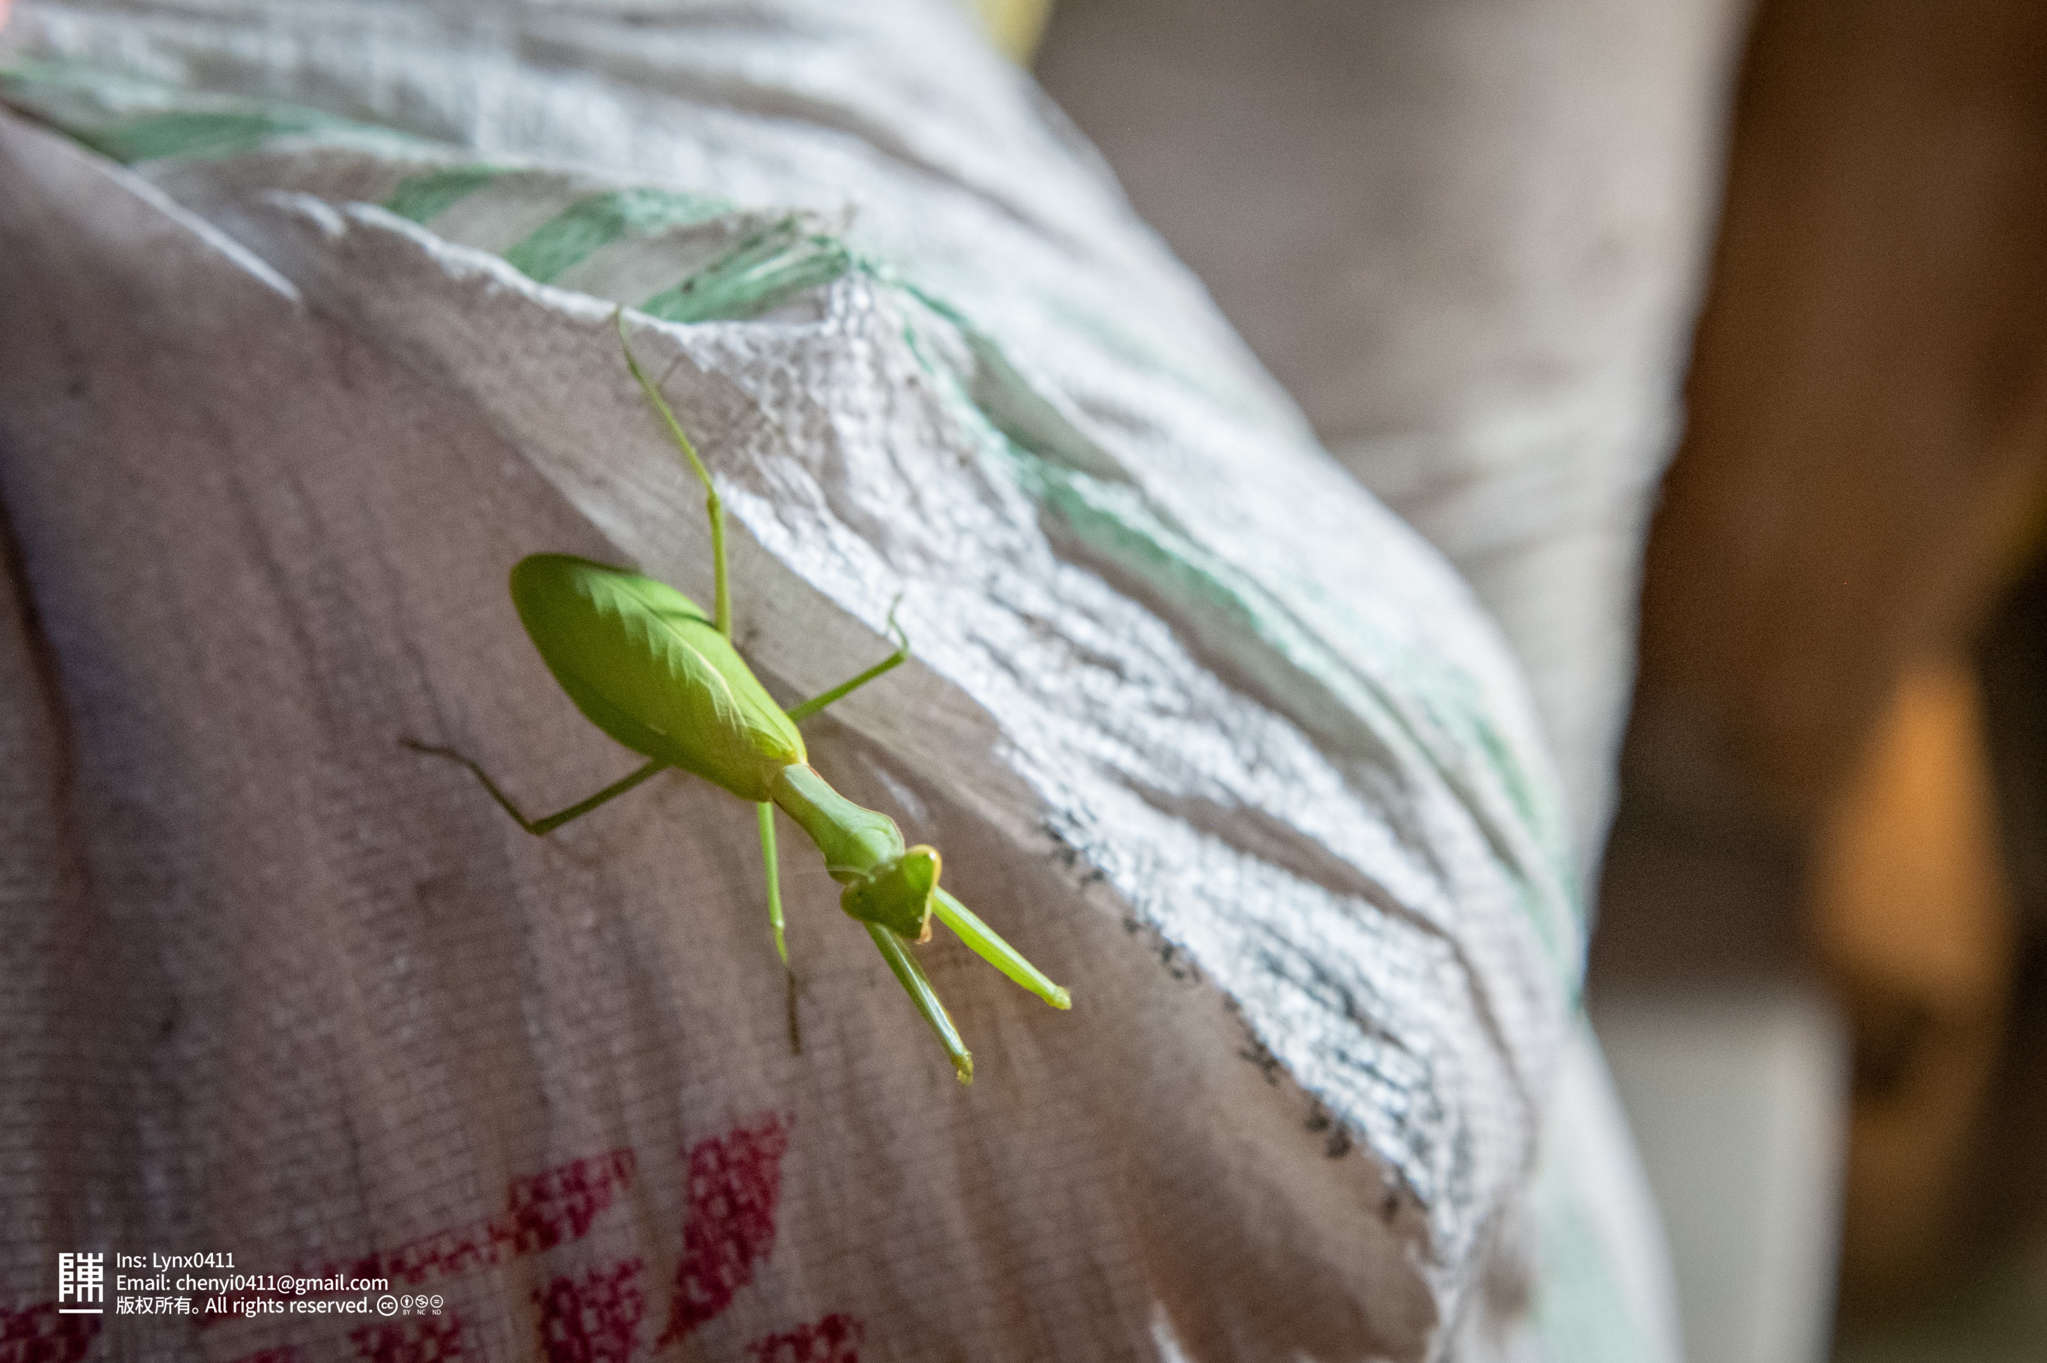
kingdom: Animalia
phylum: Arthropoda
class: Insecta
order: Mantodea
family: Mantidae
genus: Hierodula
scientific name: Hierodula chinensis
